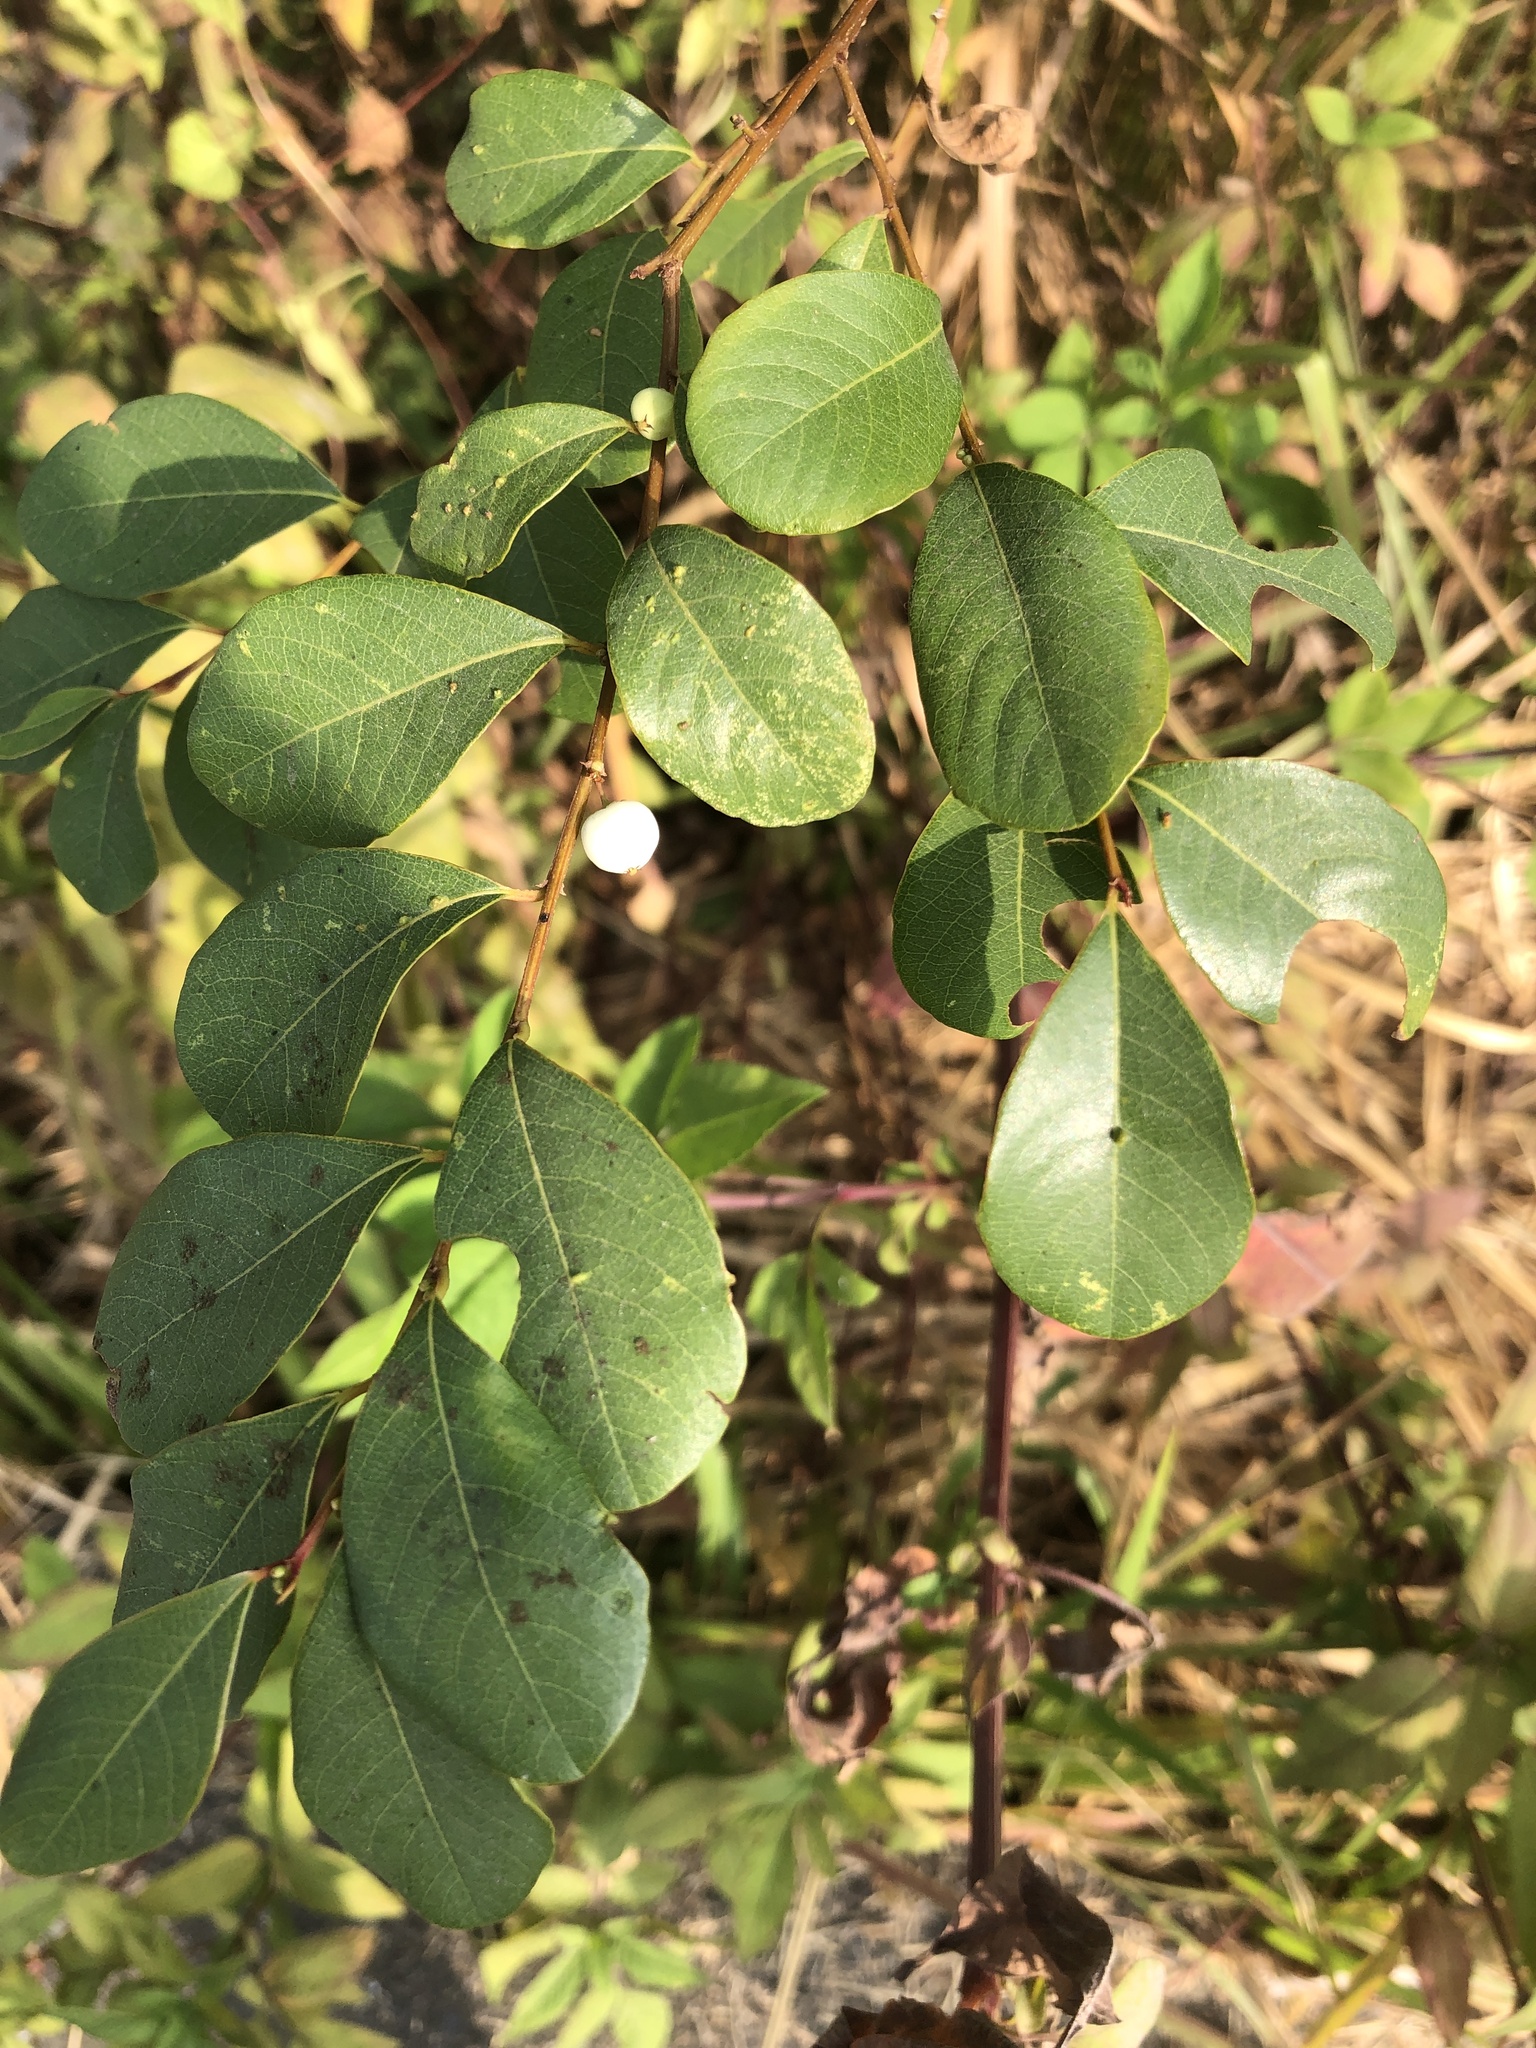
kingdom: Plantae
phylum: Tracheophyta
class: Magnoliopsida
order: Malpighiales
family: Phyllanthaceae
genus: Flueggea
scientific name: Flueggea virosa
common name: Common bushweed
